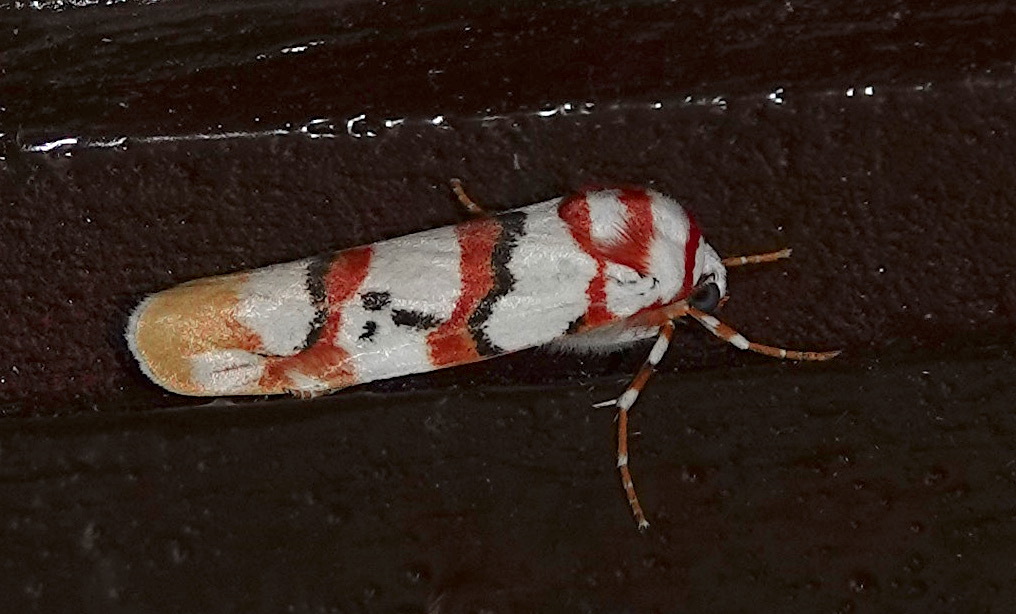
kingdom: Animalia
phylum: Arthropoda
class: Insecta
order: Lepidoptera
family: Erebidae
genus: Cyana
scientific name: Cyana cruentata
